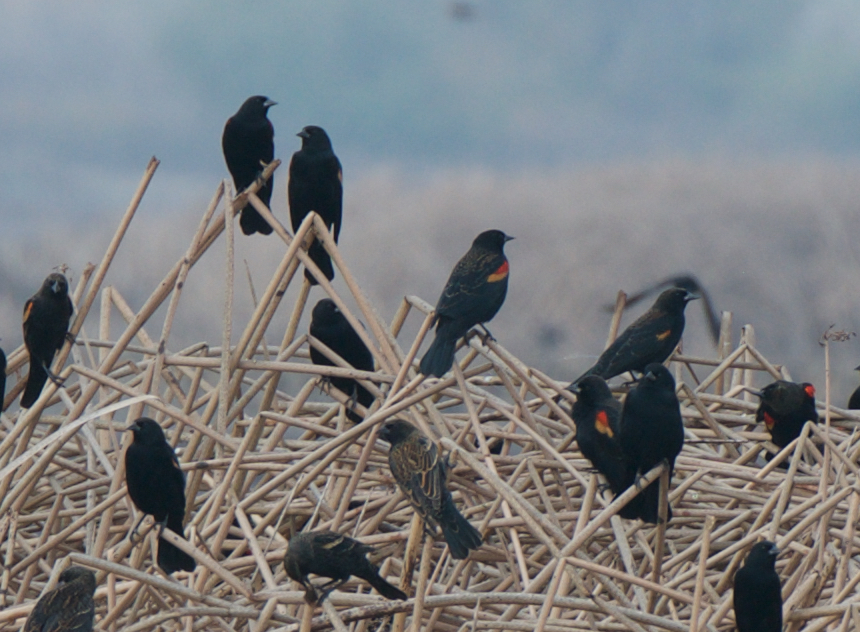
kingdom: Animalia
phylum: Chordata
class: Aves
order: Passeriformes
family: Icteridae
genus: Agelaius
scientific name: Agelaius phoeniceus
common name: Red-winged blackbird
